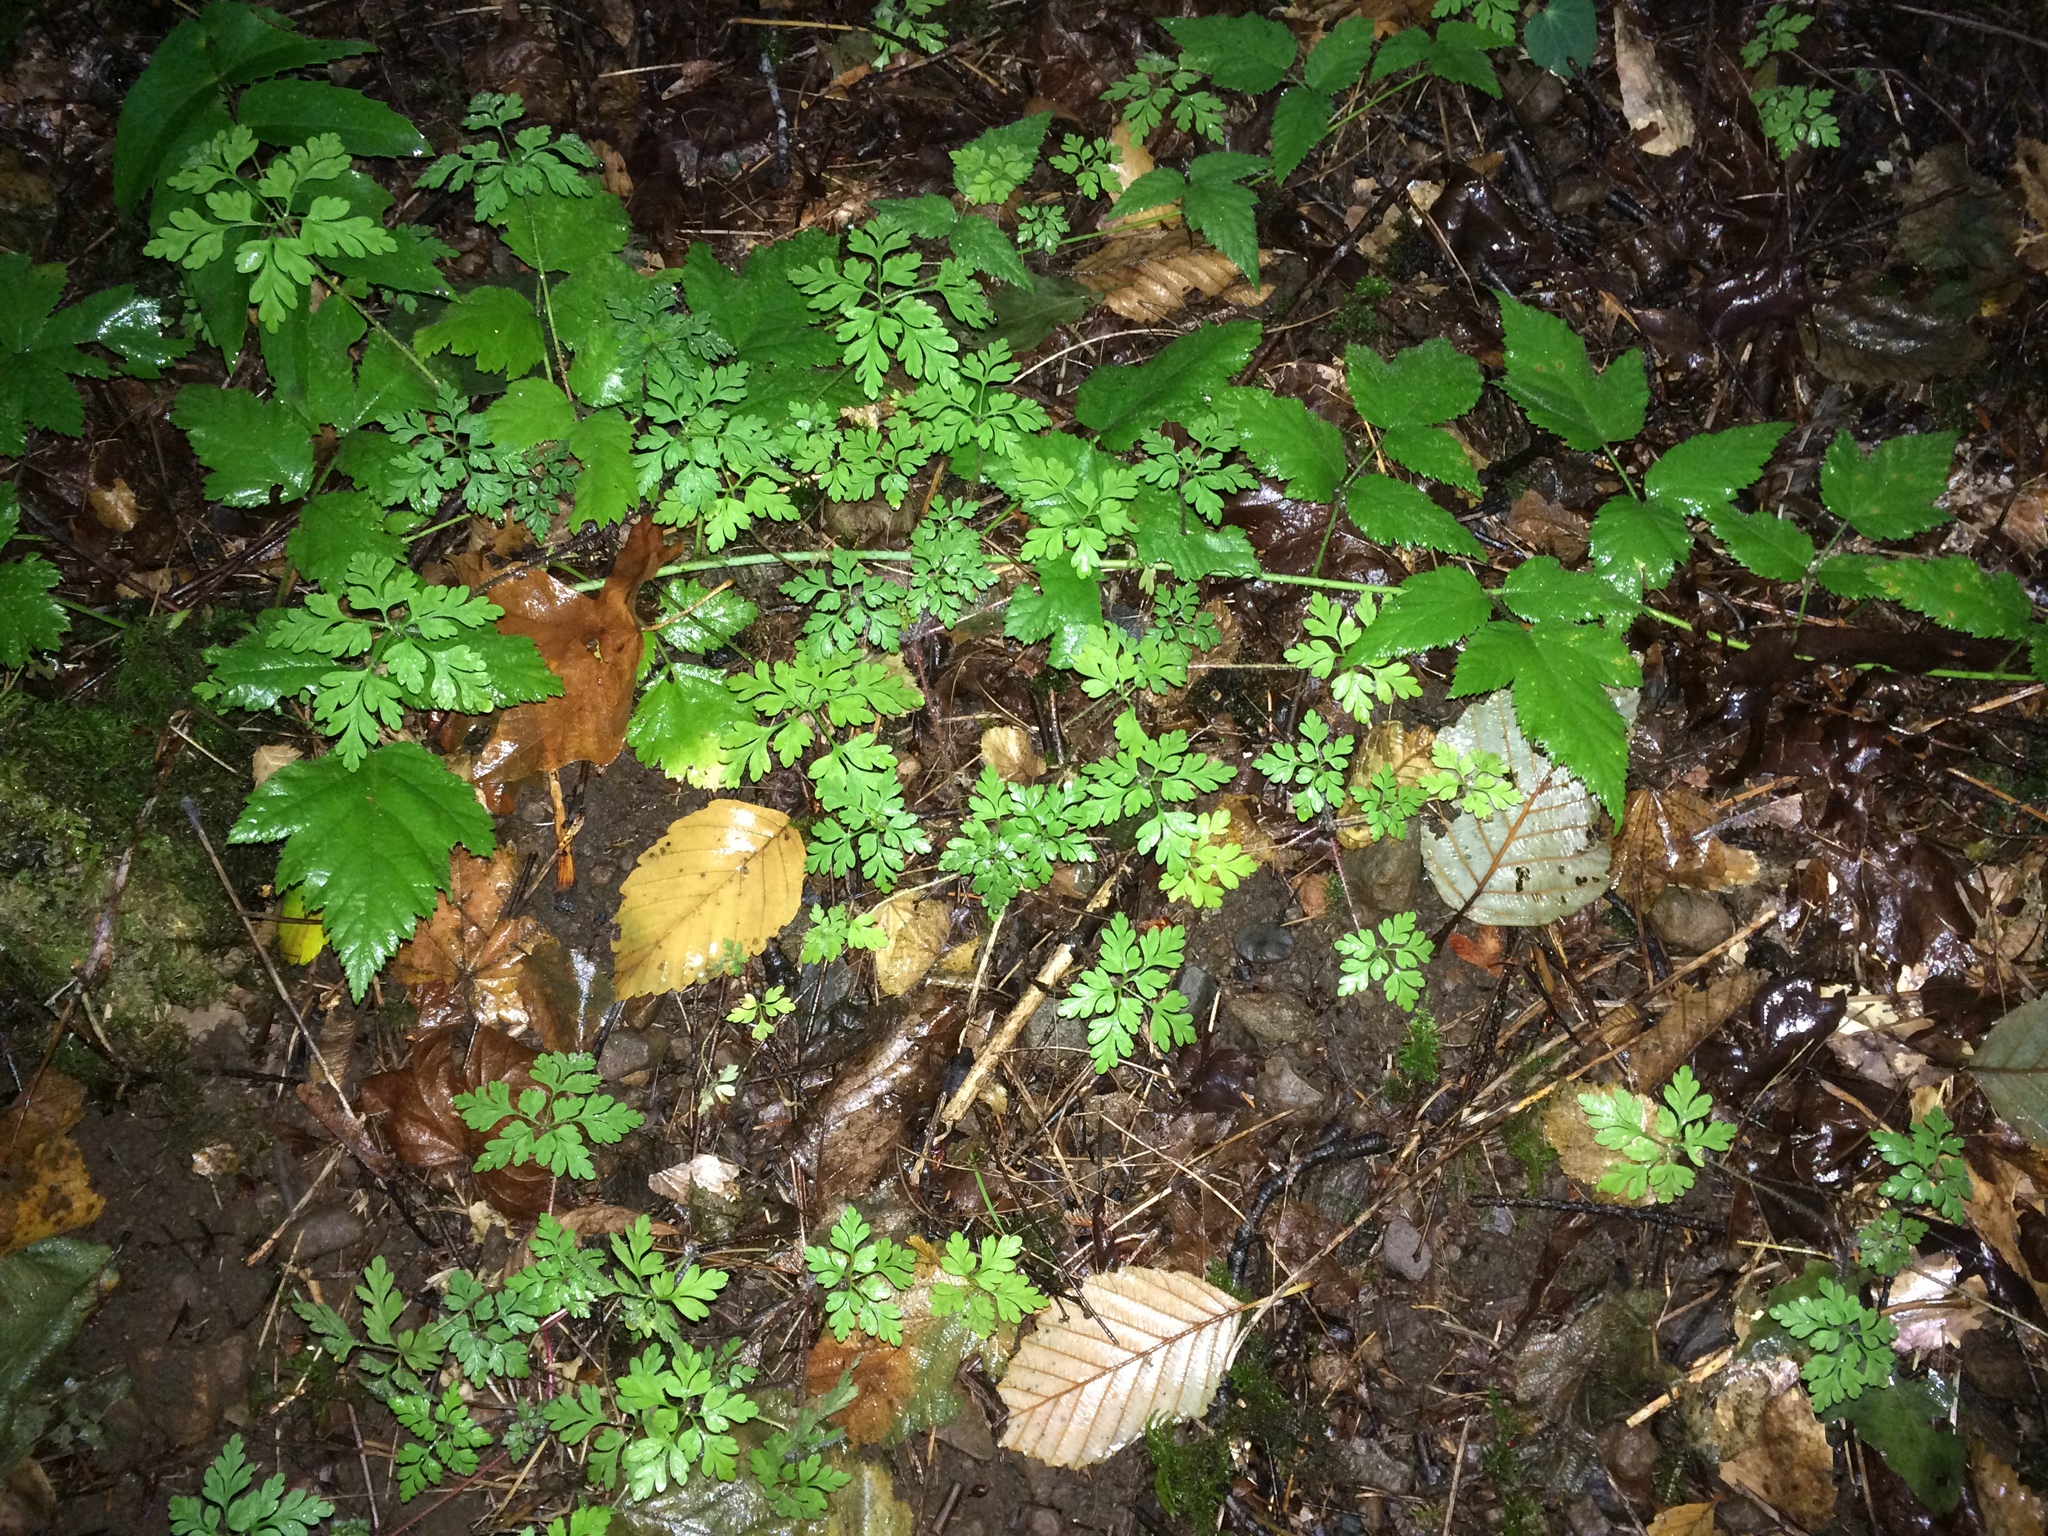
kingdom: Plantae
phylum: Tracheophyta
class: Magnoliopsida
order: Geraniales
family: Geraniaceae
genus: Geranium
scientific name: Geranium robertianum
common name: Herb-robert
